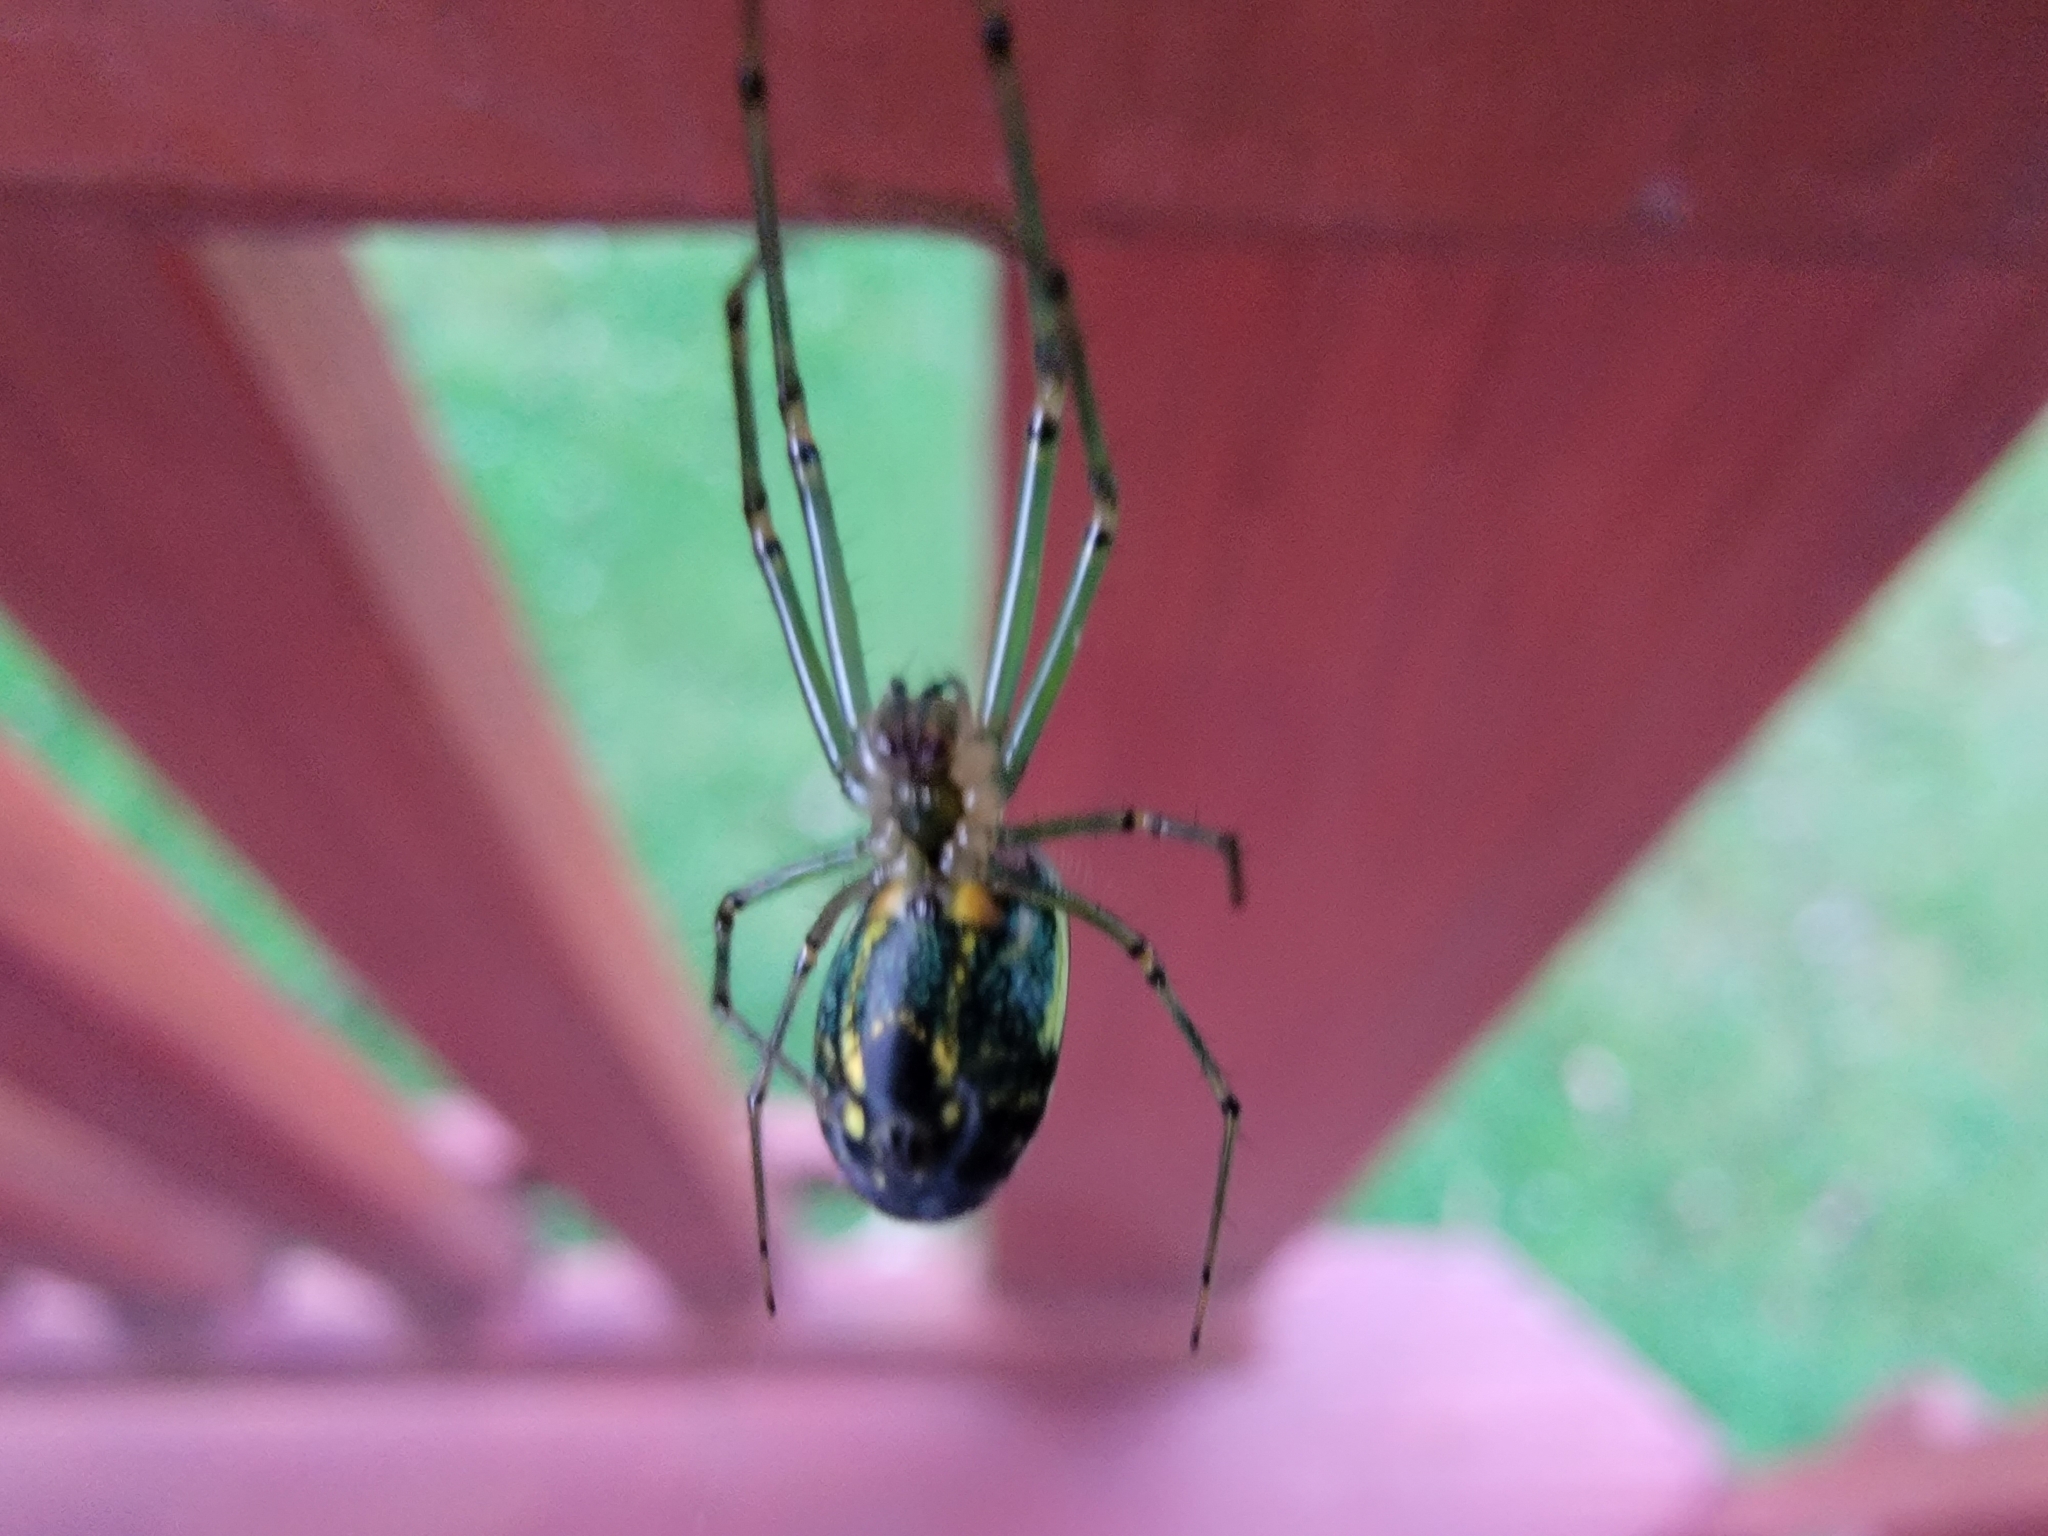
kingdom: Animalia
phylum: Arthropoda
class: Arachnida
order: Araneae
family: Tetragnathidae
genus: Leucauge
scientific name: Leucauge venusta
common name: Longjawed orb weavers
